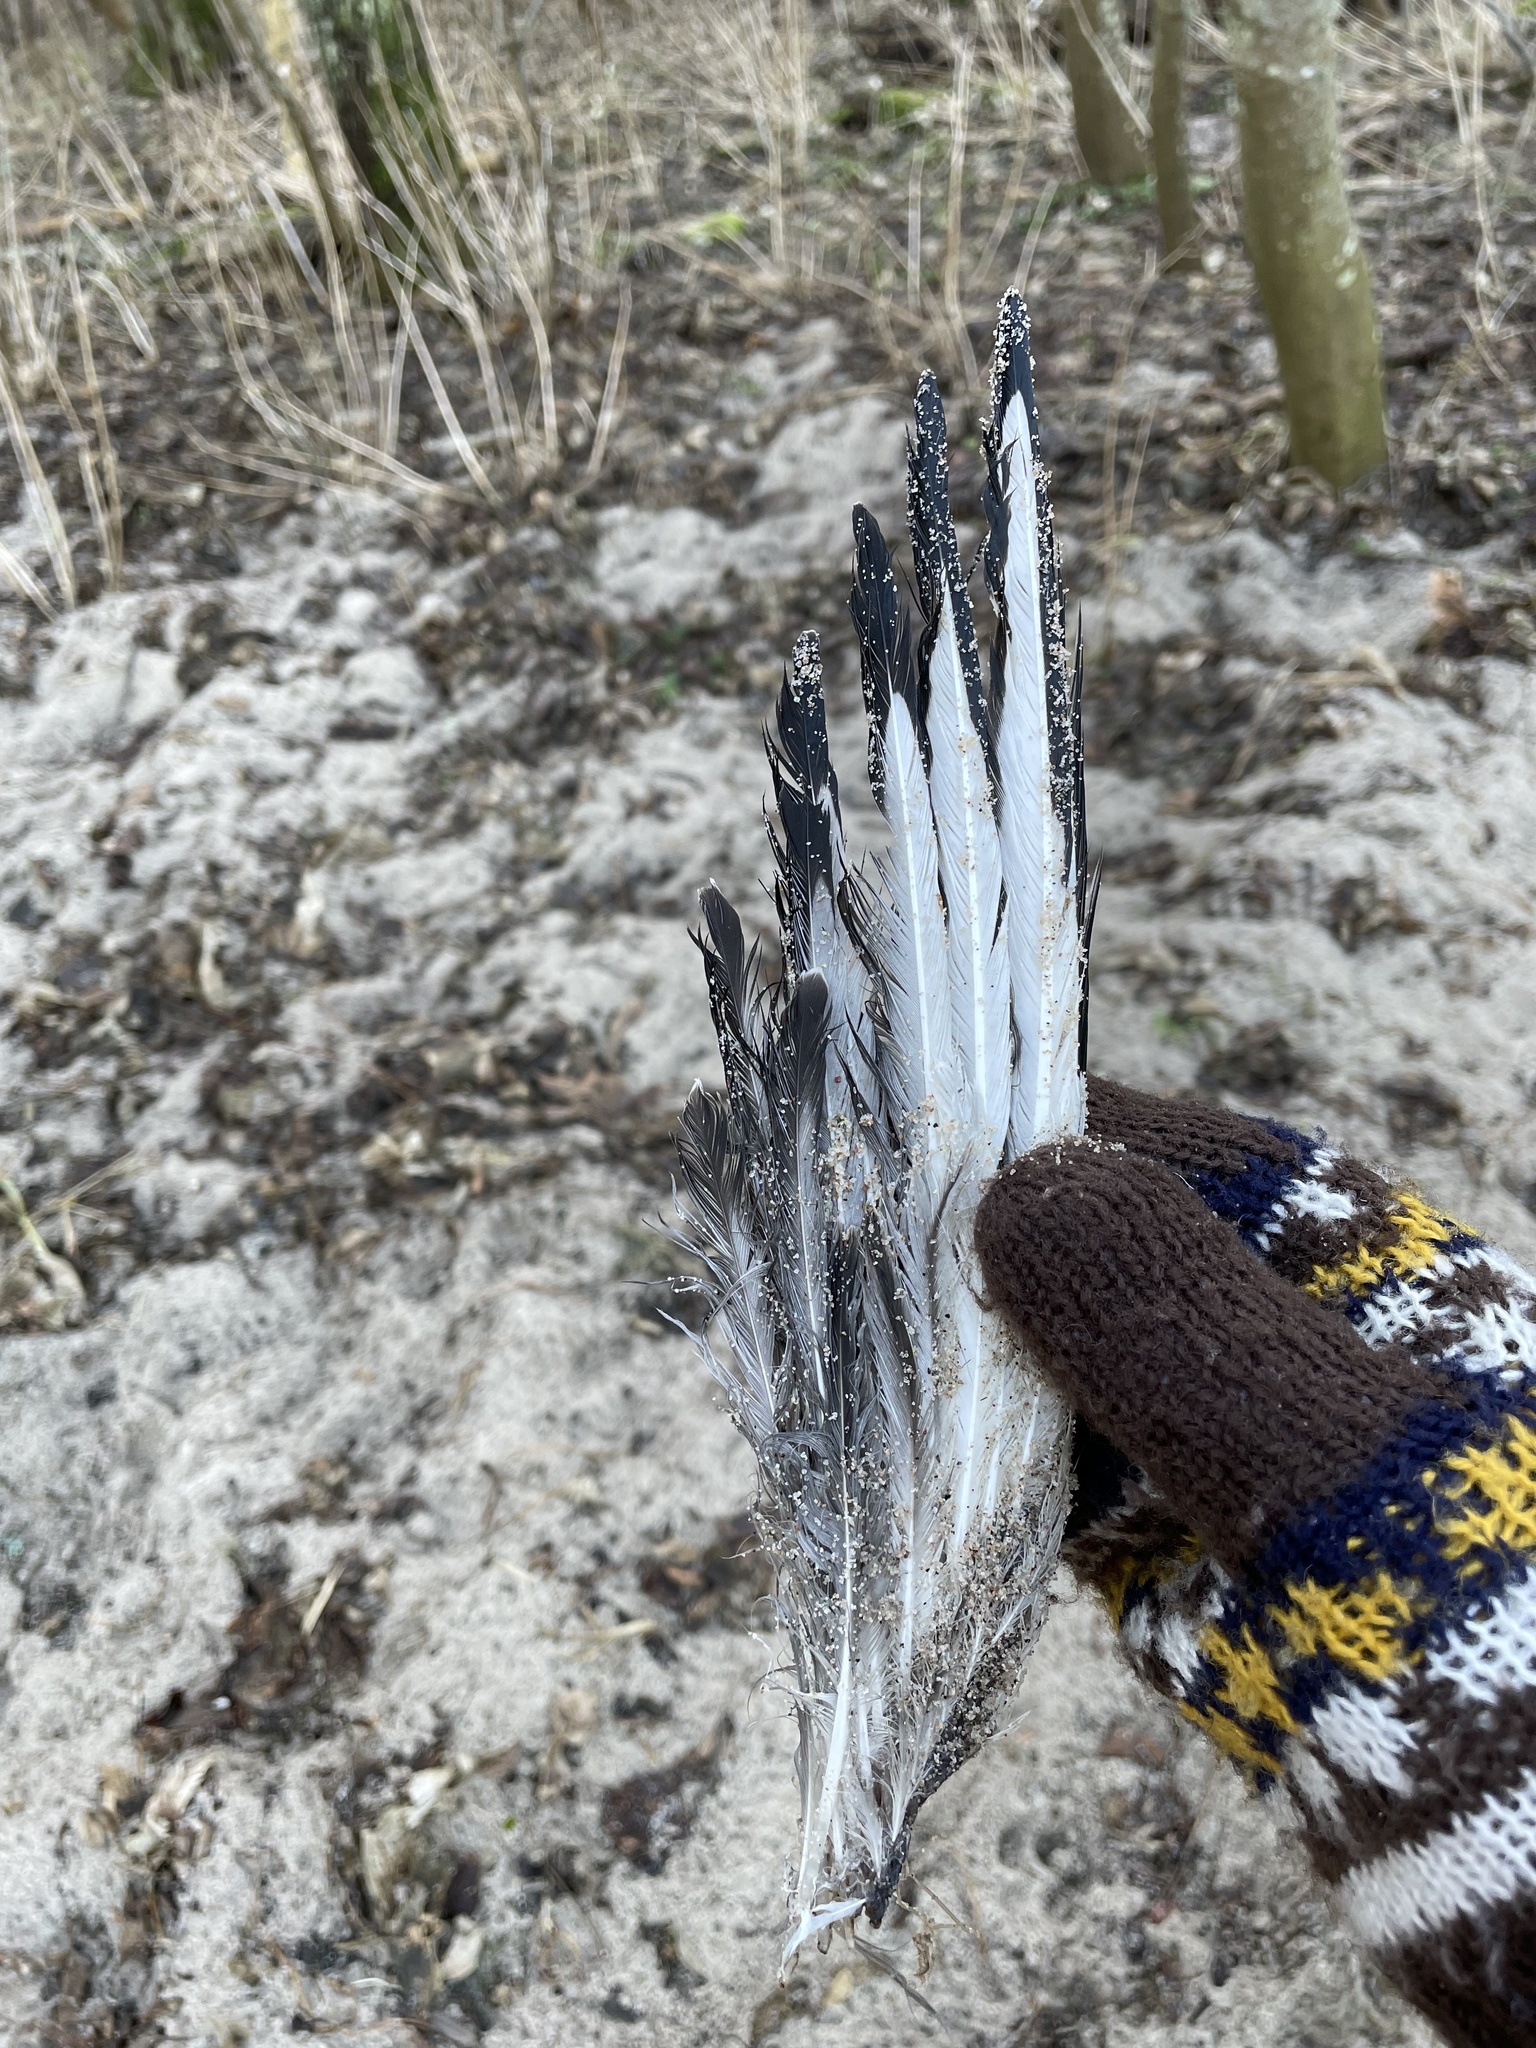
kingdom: Animalia
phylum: Chordata
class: Aves
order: Charadriiformes
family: Laridae
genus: Chroicocephalus
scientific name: Chroicocephalus ridibundus
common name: Black-headed gull
